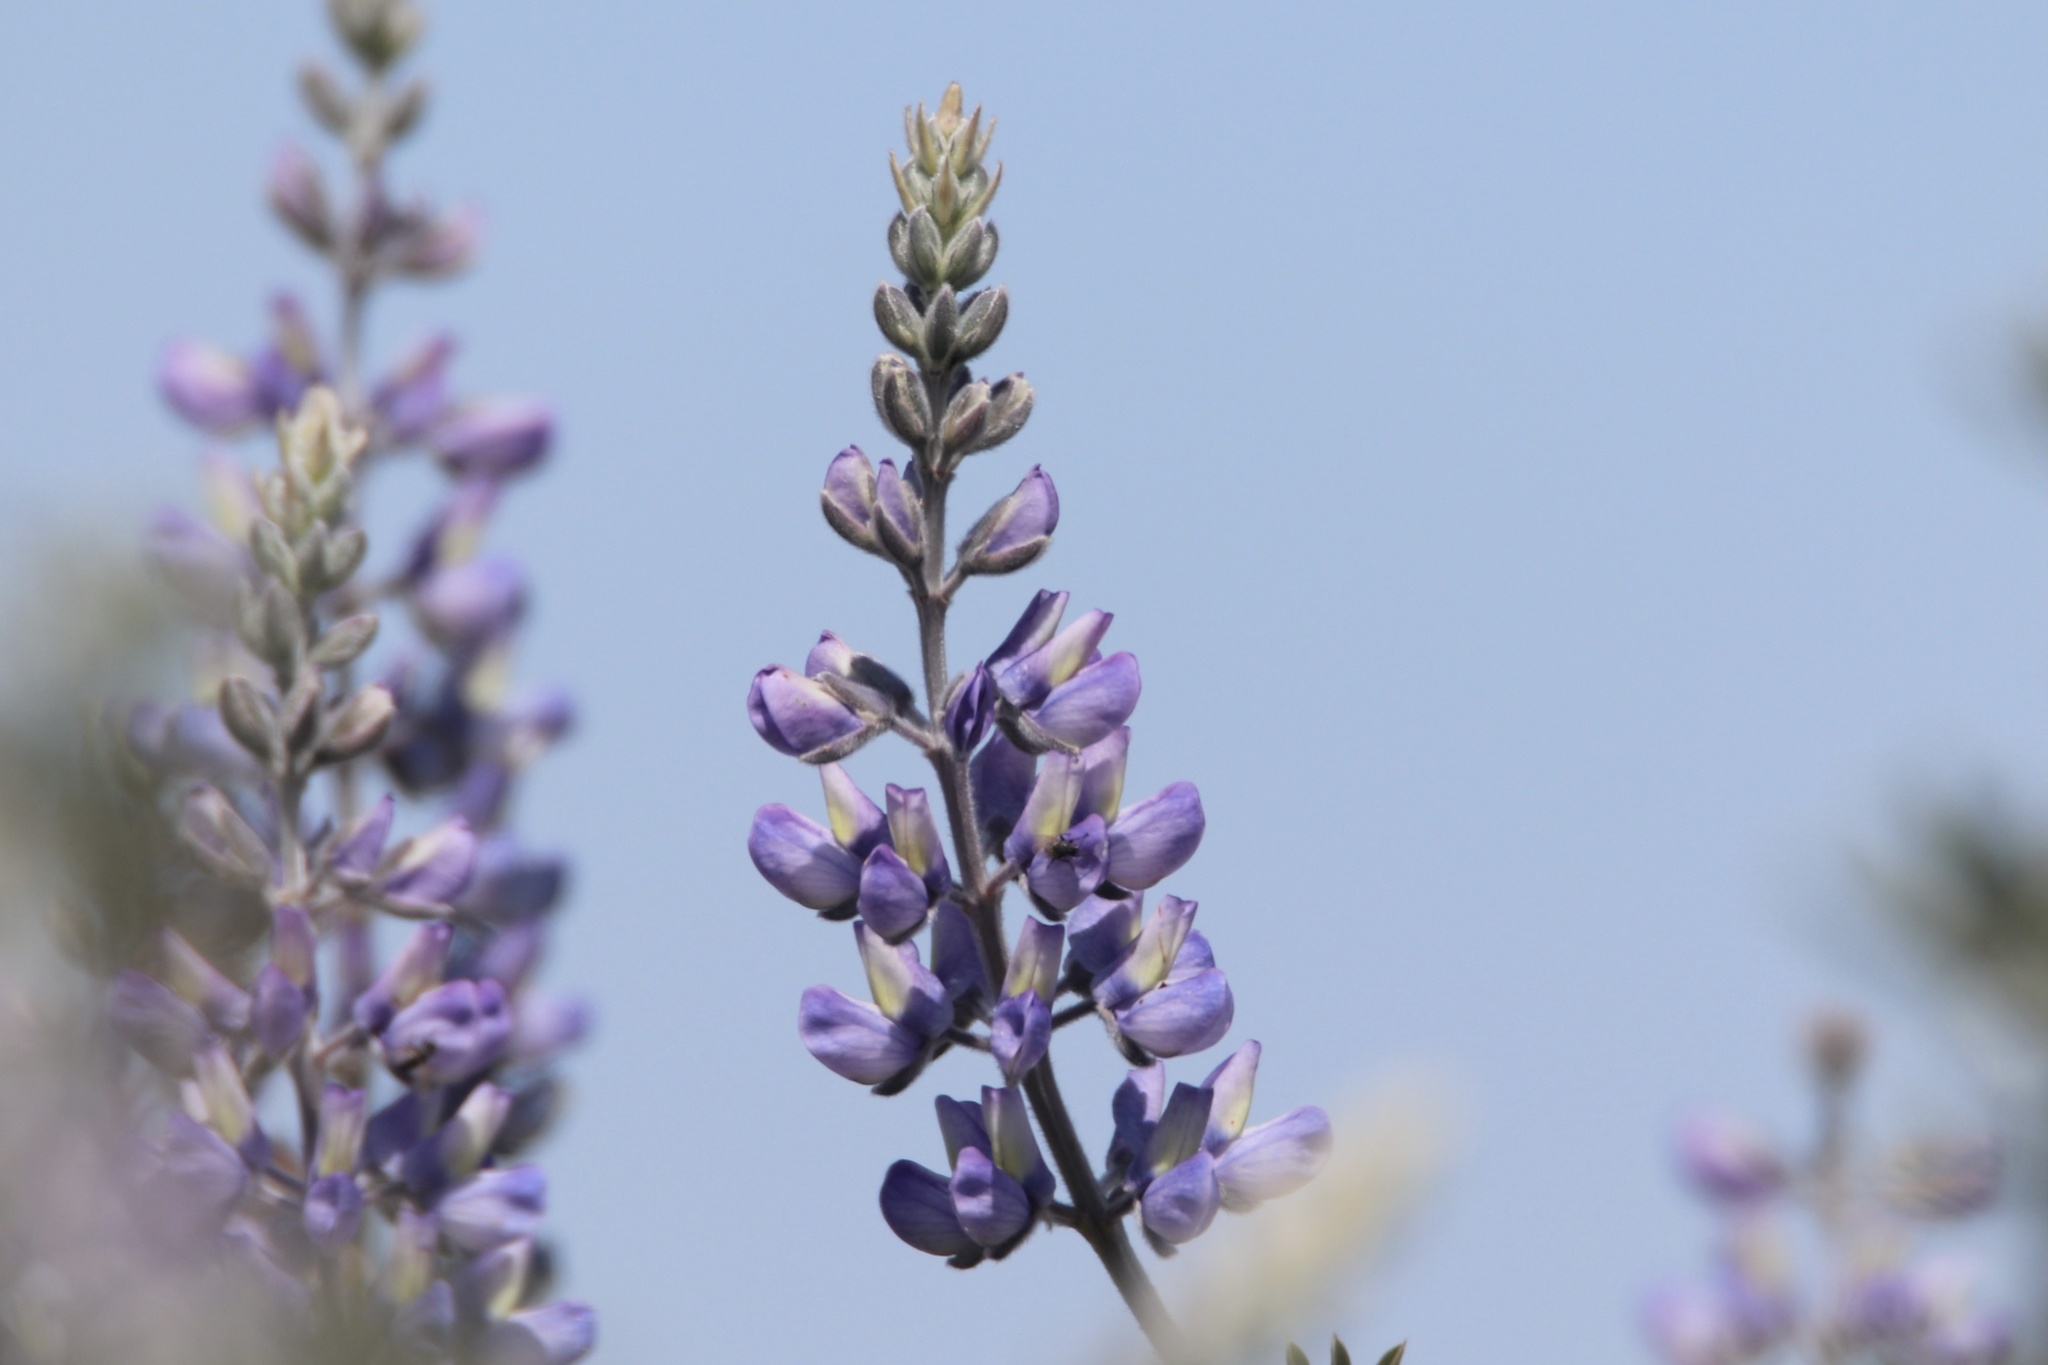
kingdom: Plantae
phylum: Tracheophyta
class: Magnoliopsida
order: Fabales
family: Fabaceae
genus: Lupinus
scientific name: Lupinus chamissonis
